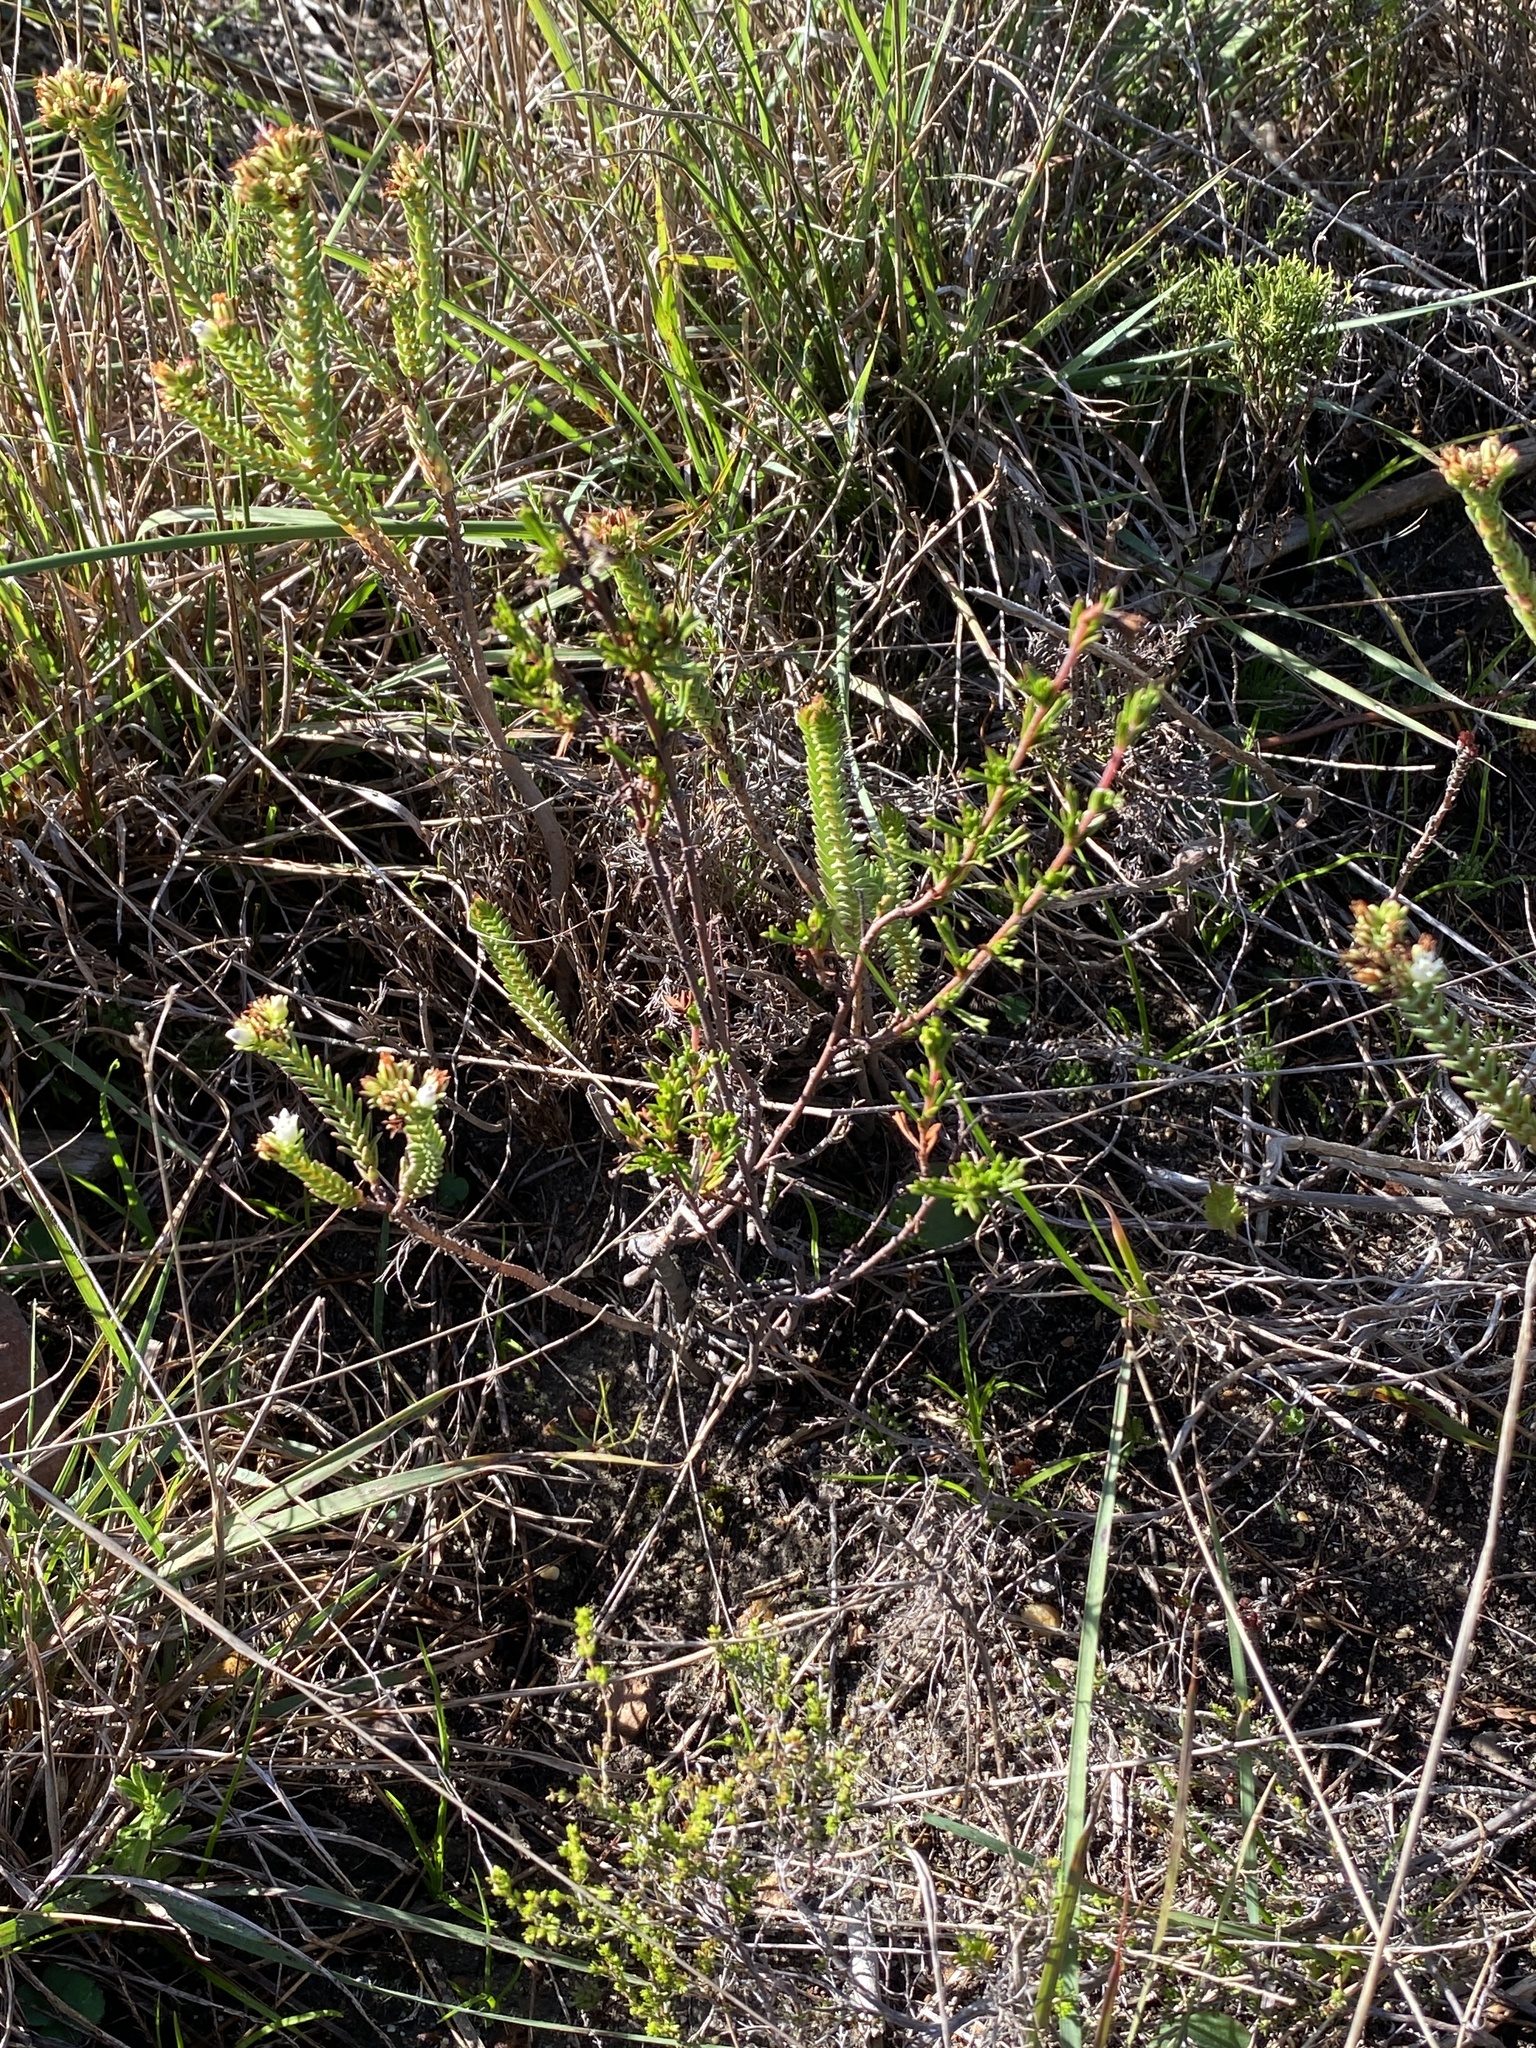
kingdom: Plantae
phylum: Tracheophyta
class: Magnoliopsida
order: Saxifragales
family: Crassulaceae
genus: Crassula
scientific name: Crassula ericoides
